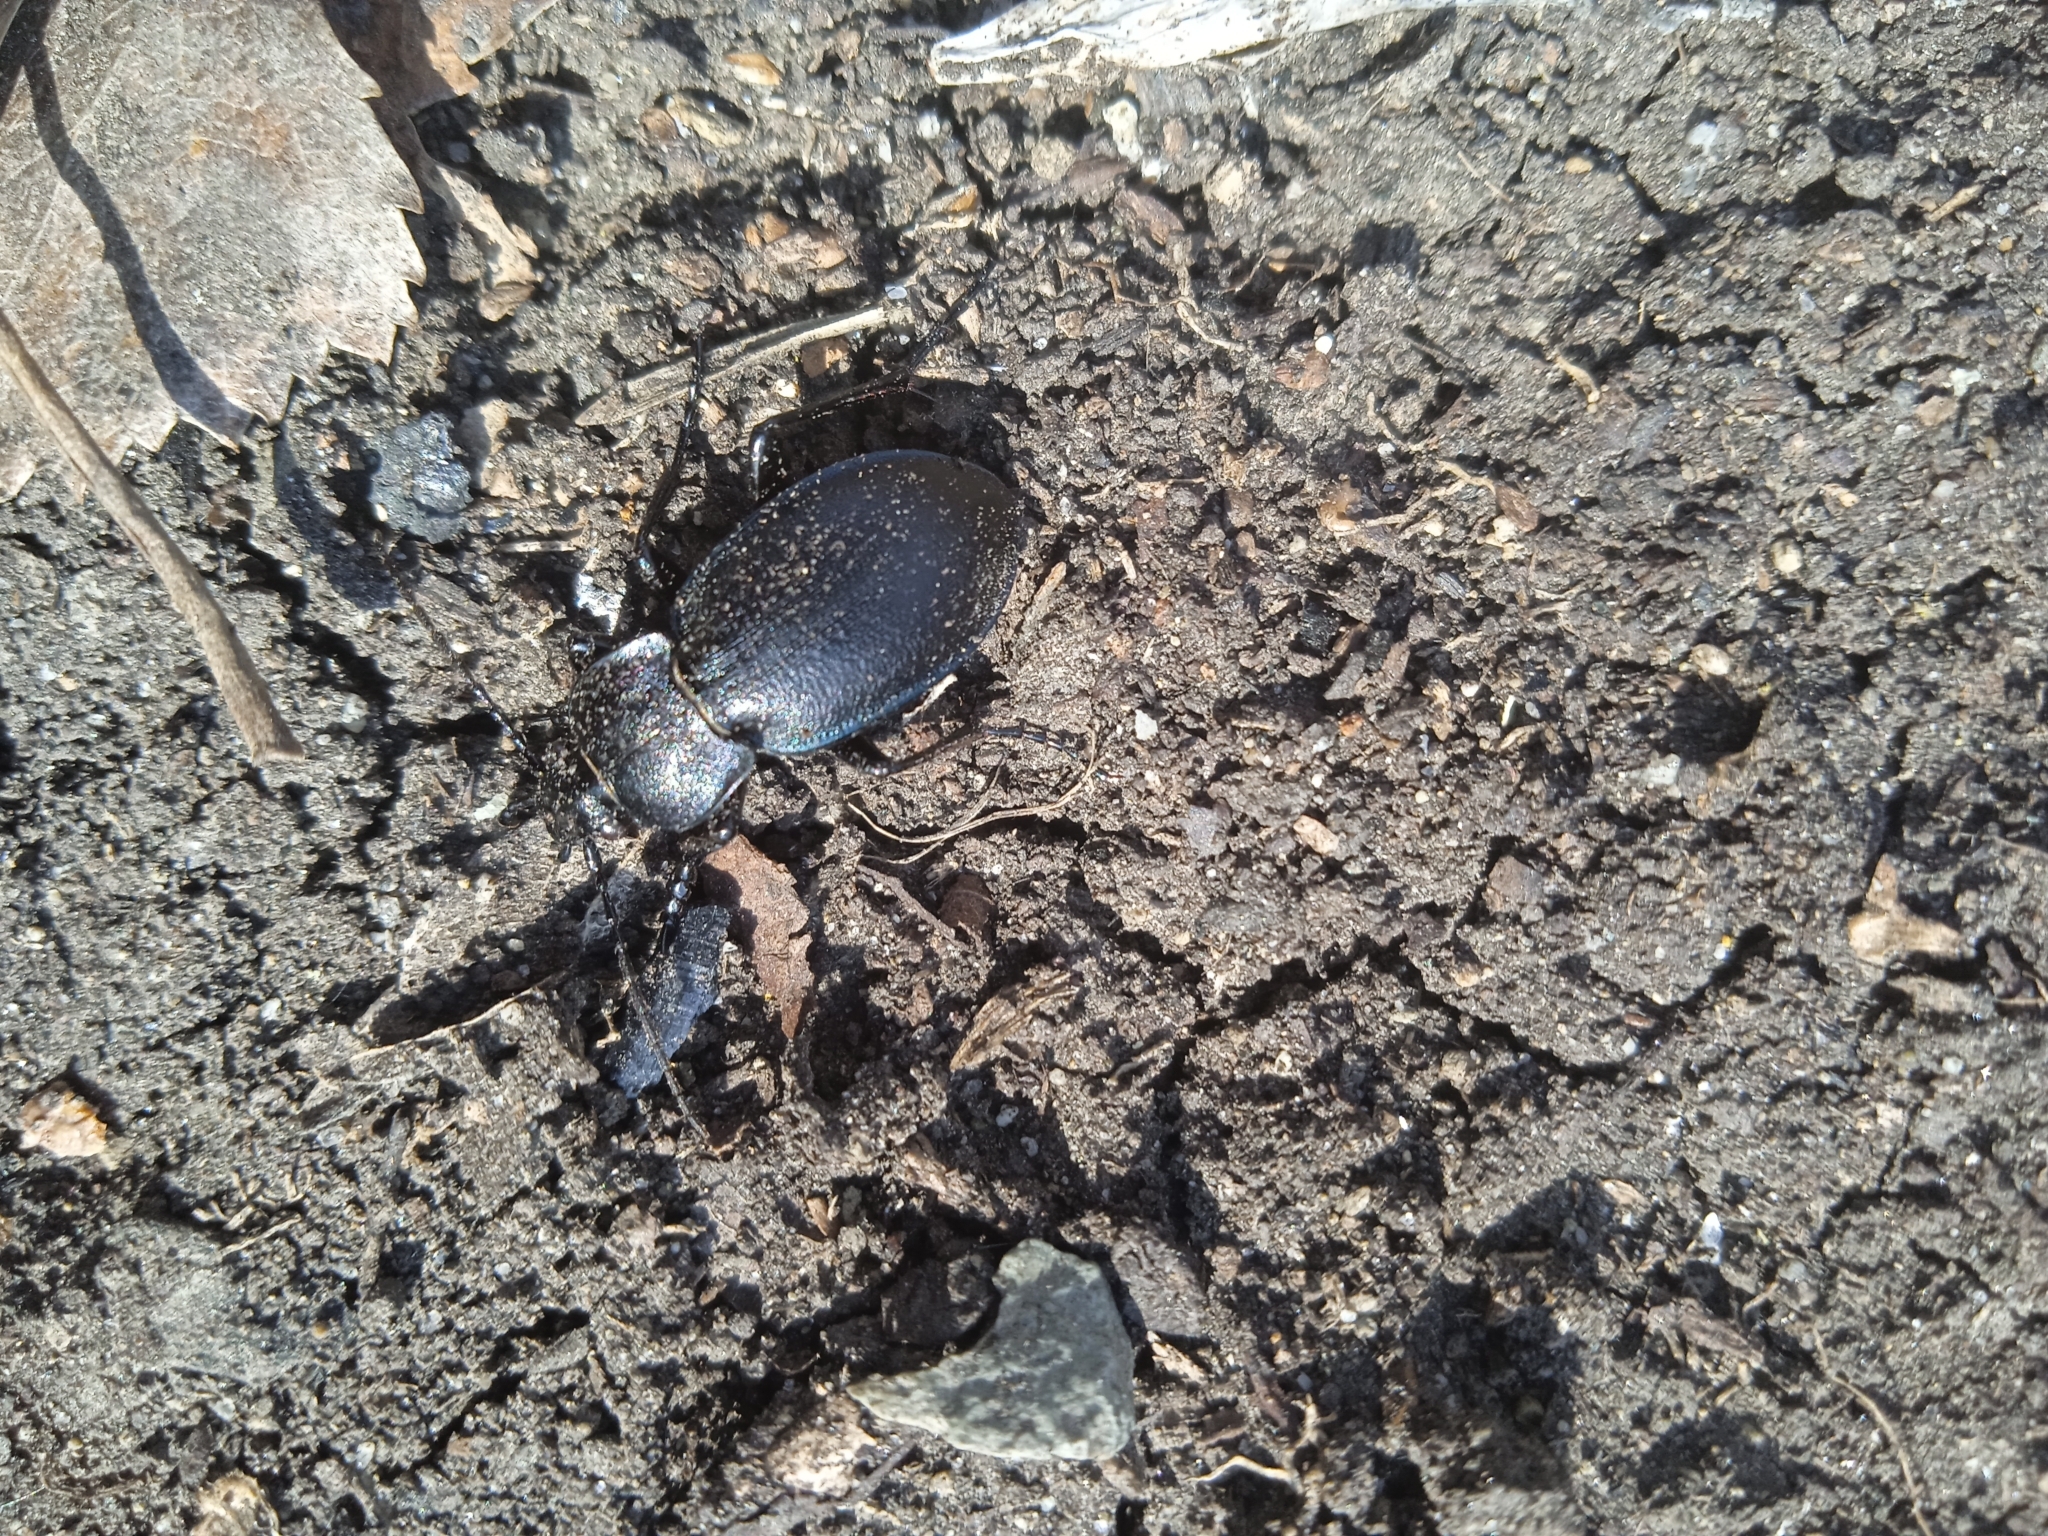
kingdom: Animalia
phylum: Arthropoda
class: Insecta
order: Coleoptera
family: Carabidae
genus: Carabus
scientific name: Carabus convexus
